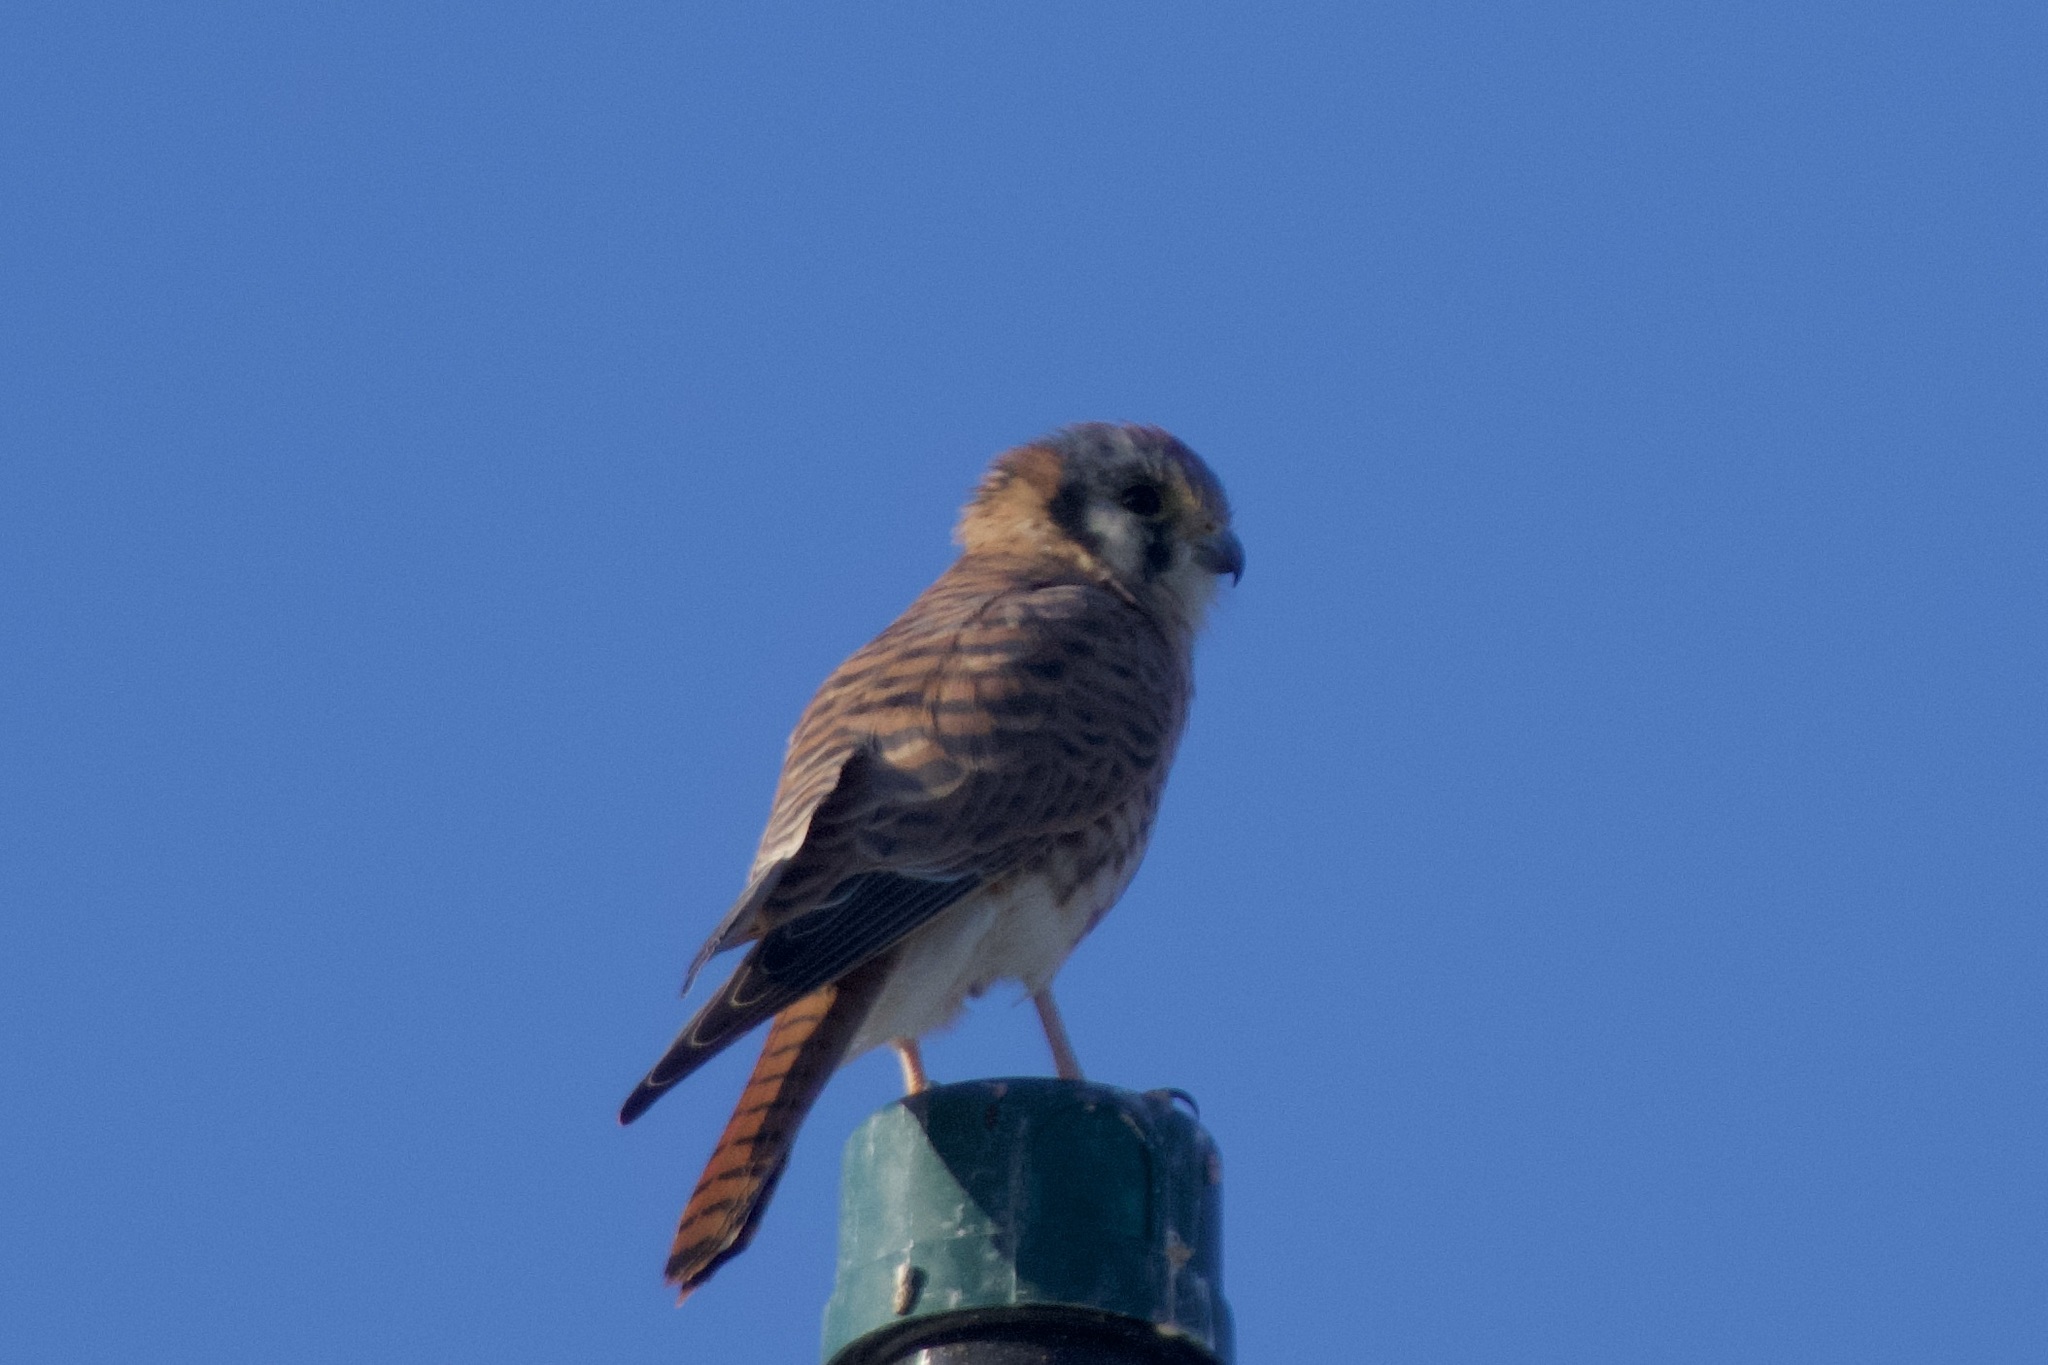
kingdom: Animalia
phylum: Chordata
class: Aves
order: Falconiformes
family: Falconidae
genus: Falco
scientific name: Falco sparverius
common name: American kestrel
